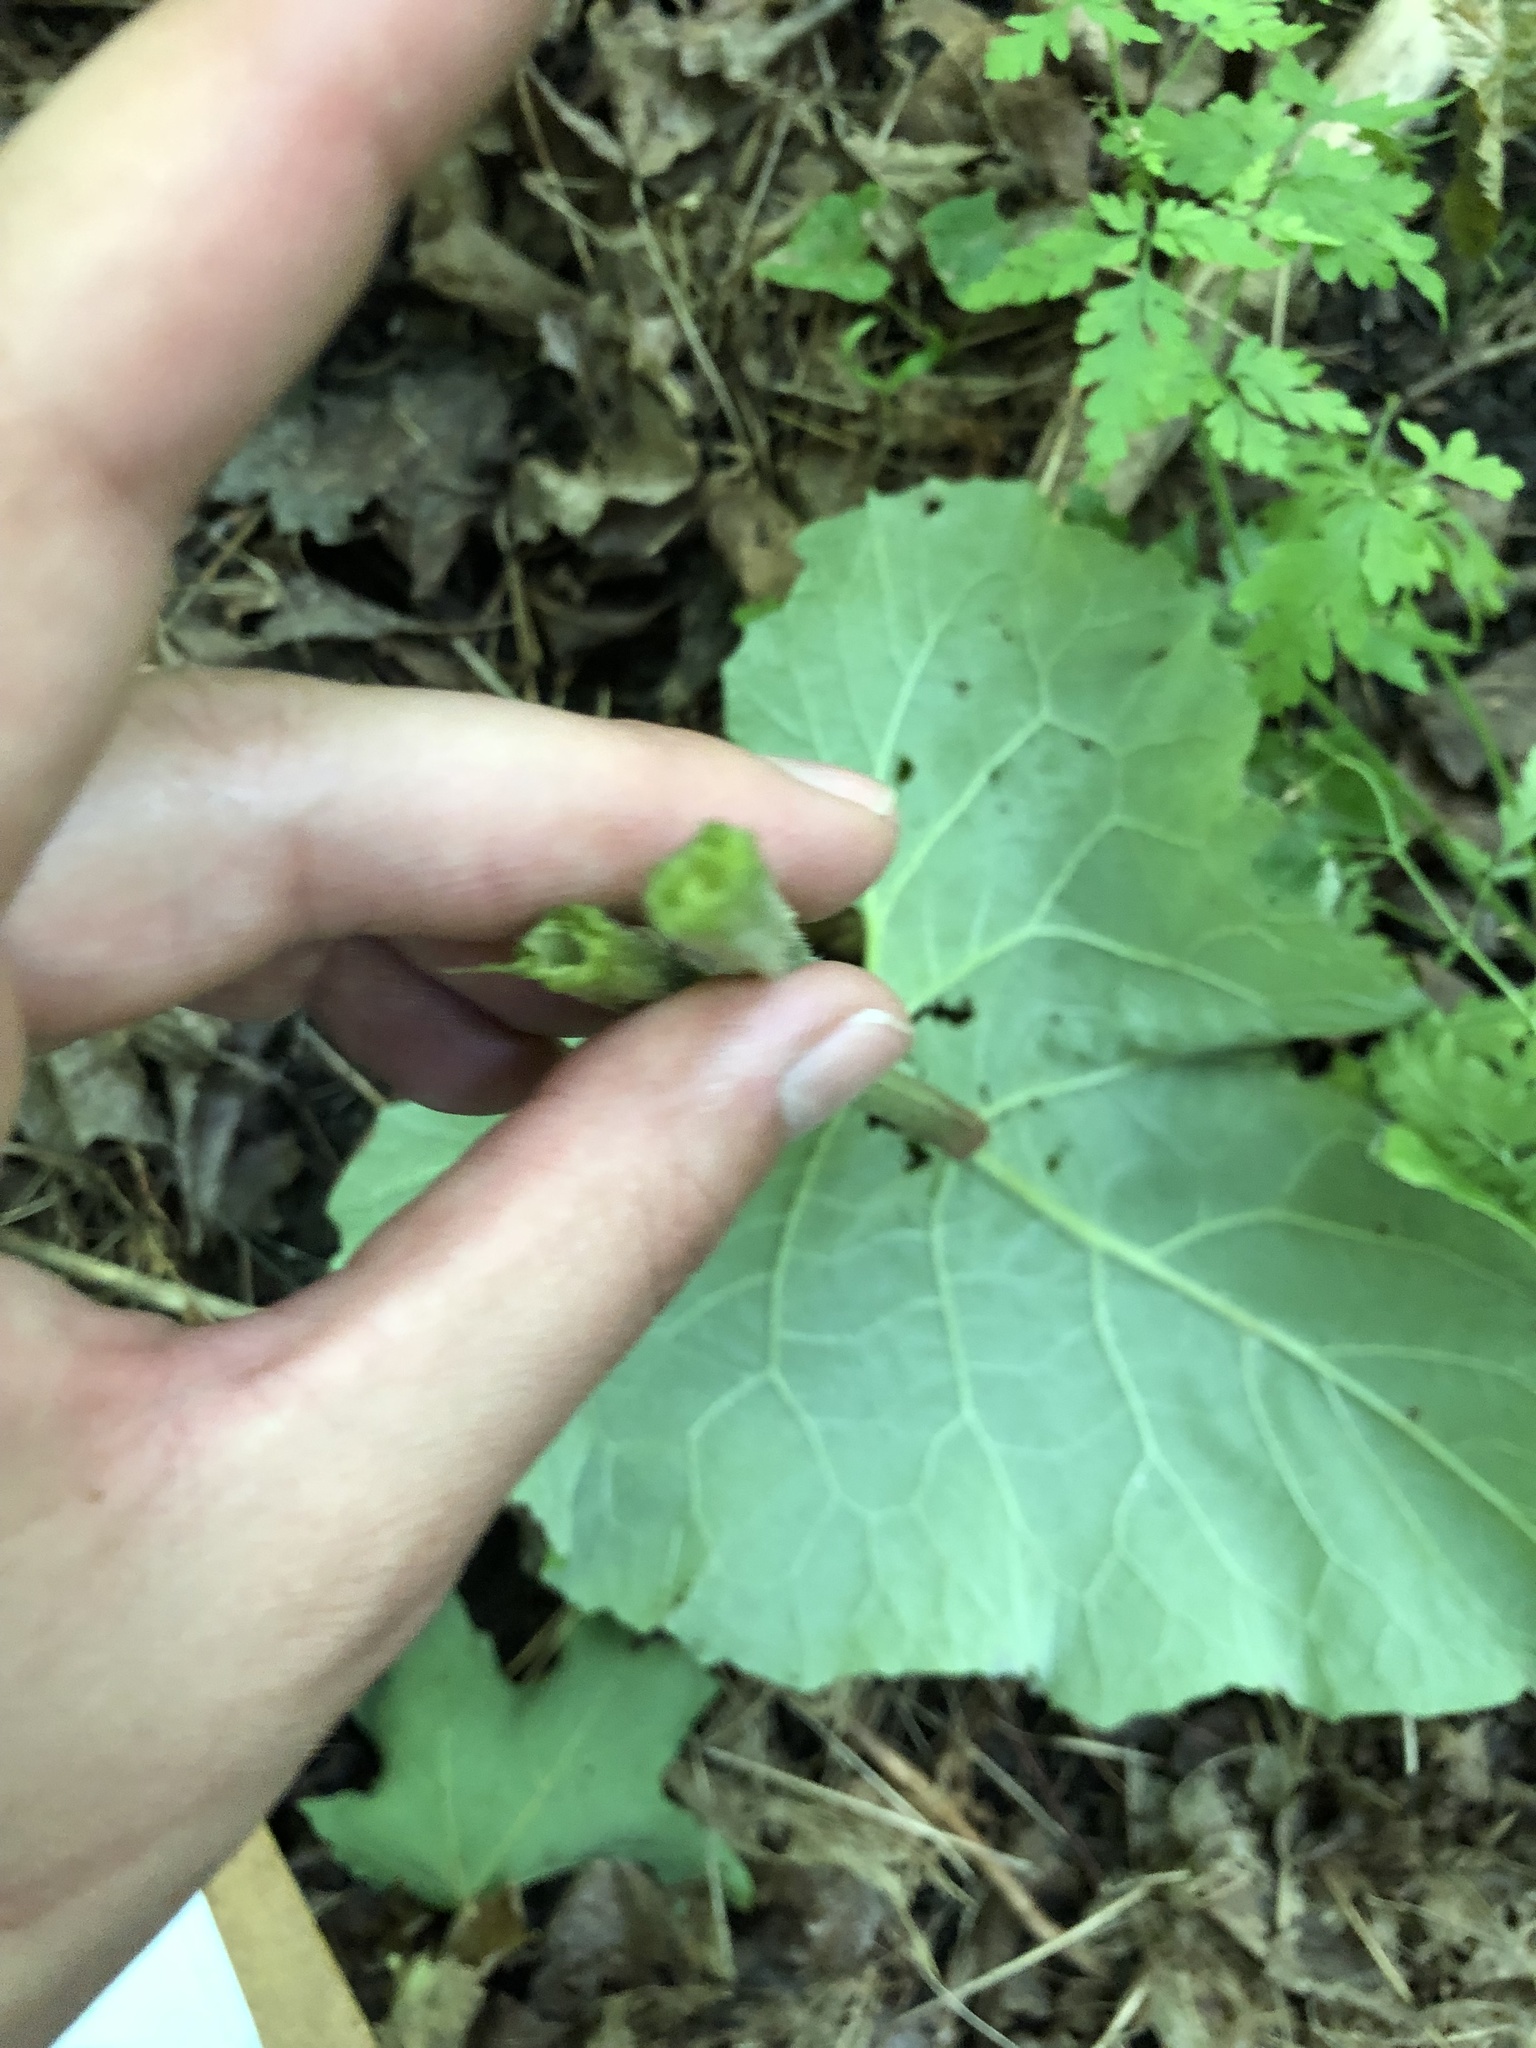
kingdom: Plantae
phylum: Tracheophyta
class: Magnoliopsida
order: Asterales
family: Asteraceae
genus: Arctium
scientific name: Arctium minus
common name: Lesser burdock
